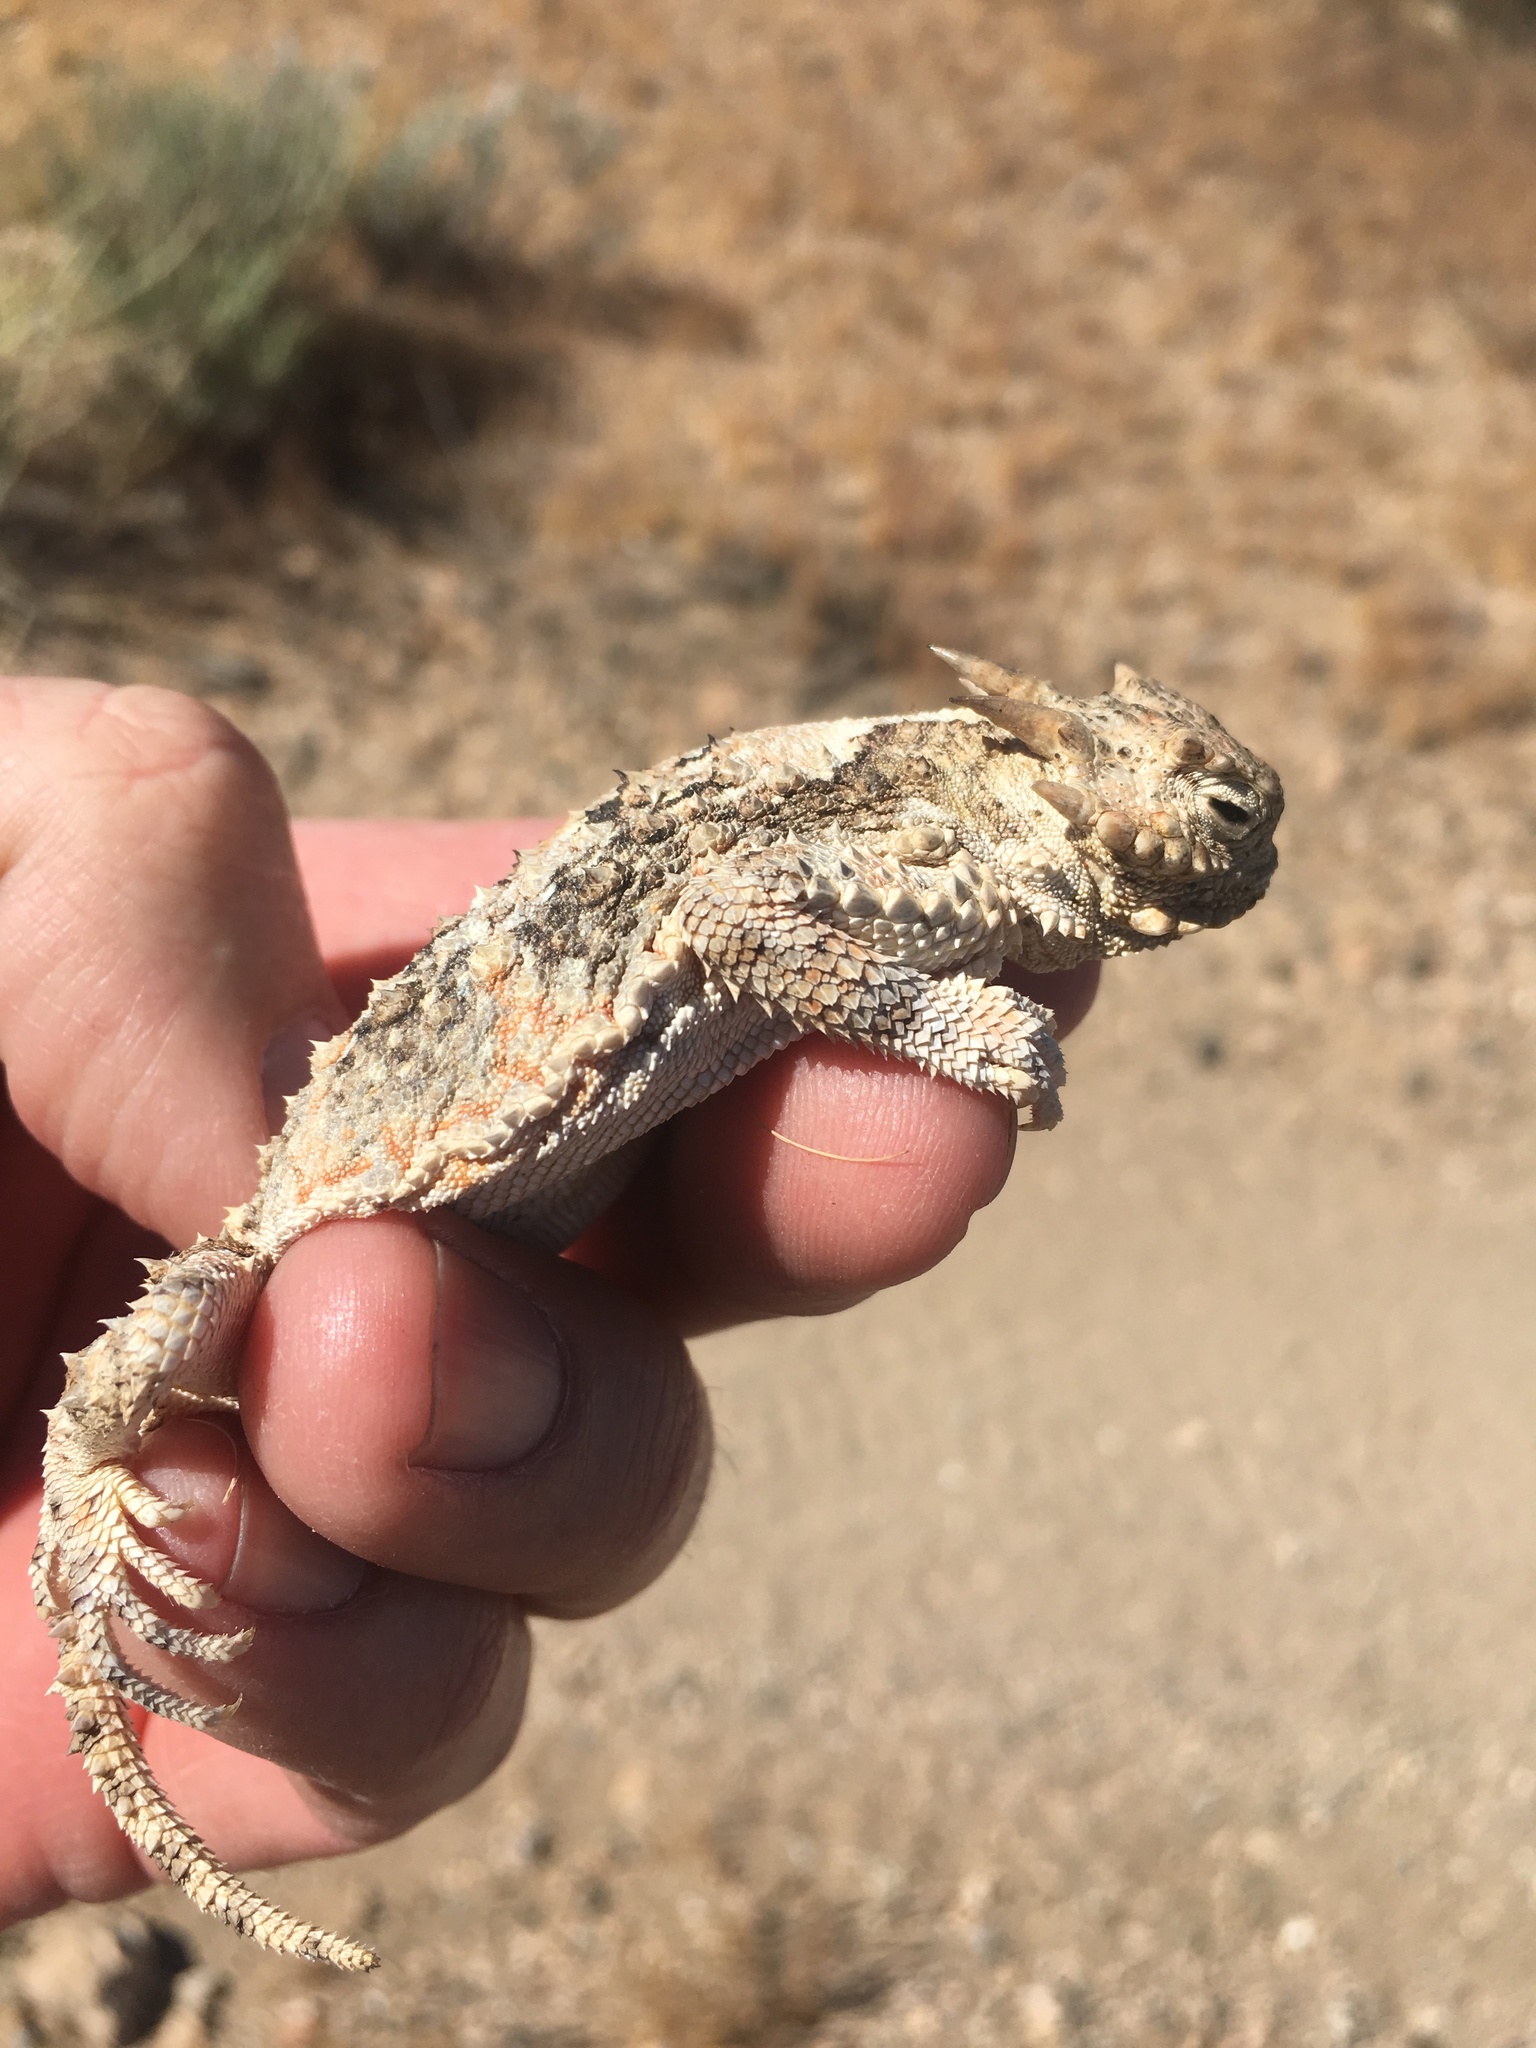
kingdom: Animalia
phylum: Chordata
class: Squamata
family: Phrynosomatidae
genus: Phrynosoma
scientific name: Phrynosoma platyrhinos
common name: Desert horned lizard
